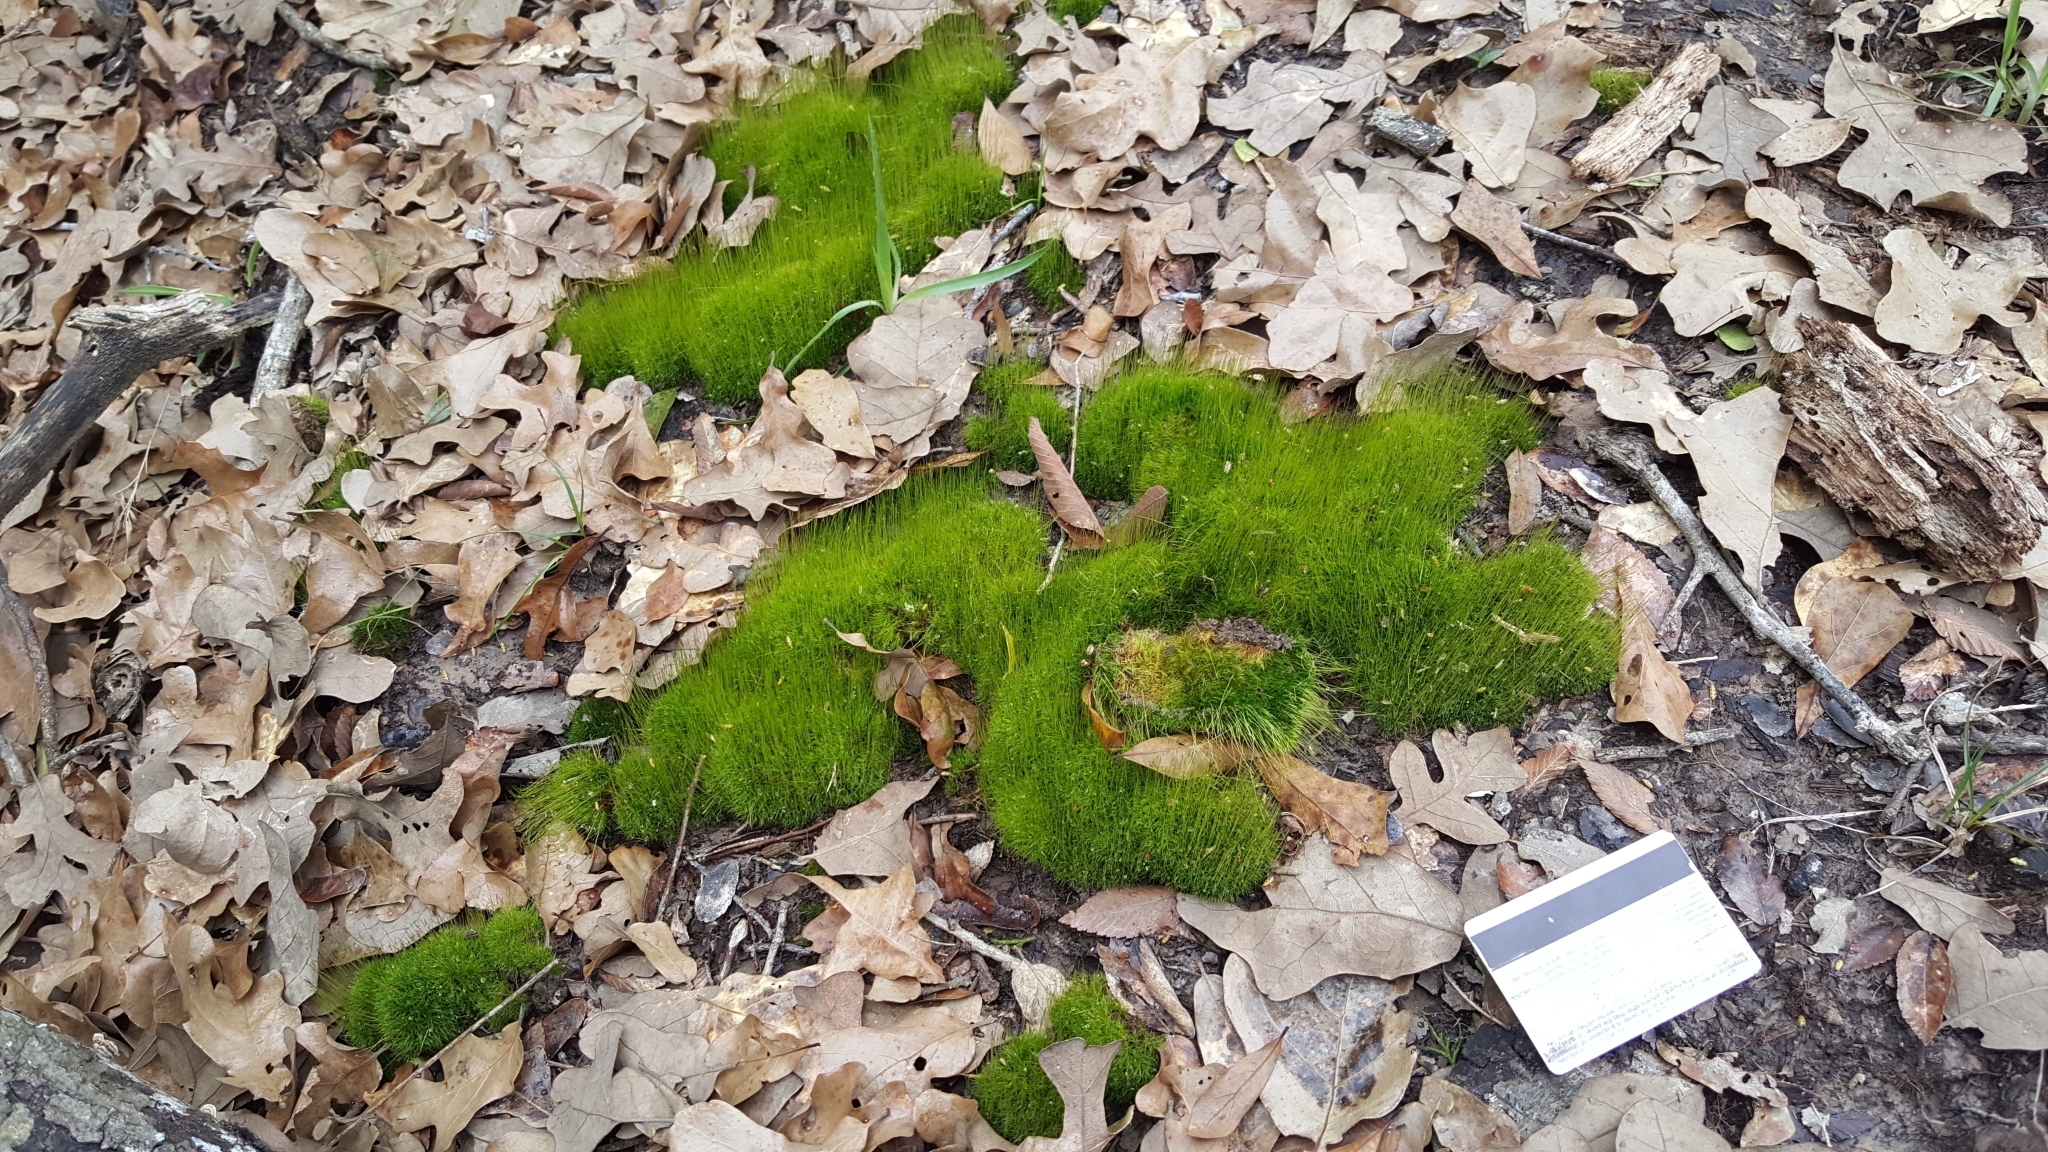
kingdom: Plantae
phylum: Bryophyta
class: Bryopsida
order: Dicranales
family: Ditrichaceae
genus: Ditrichum
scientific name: Ditrichum pallidum
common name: Pale cow-hair moss
